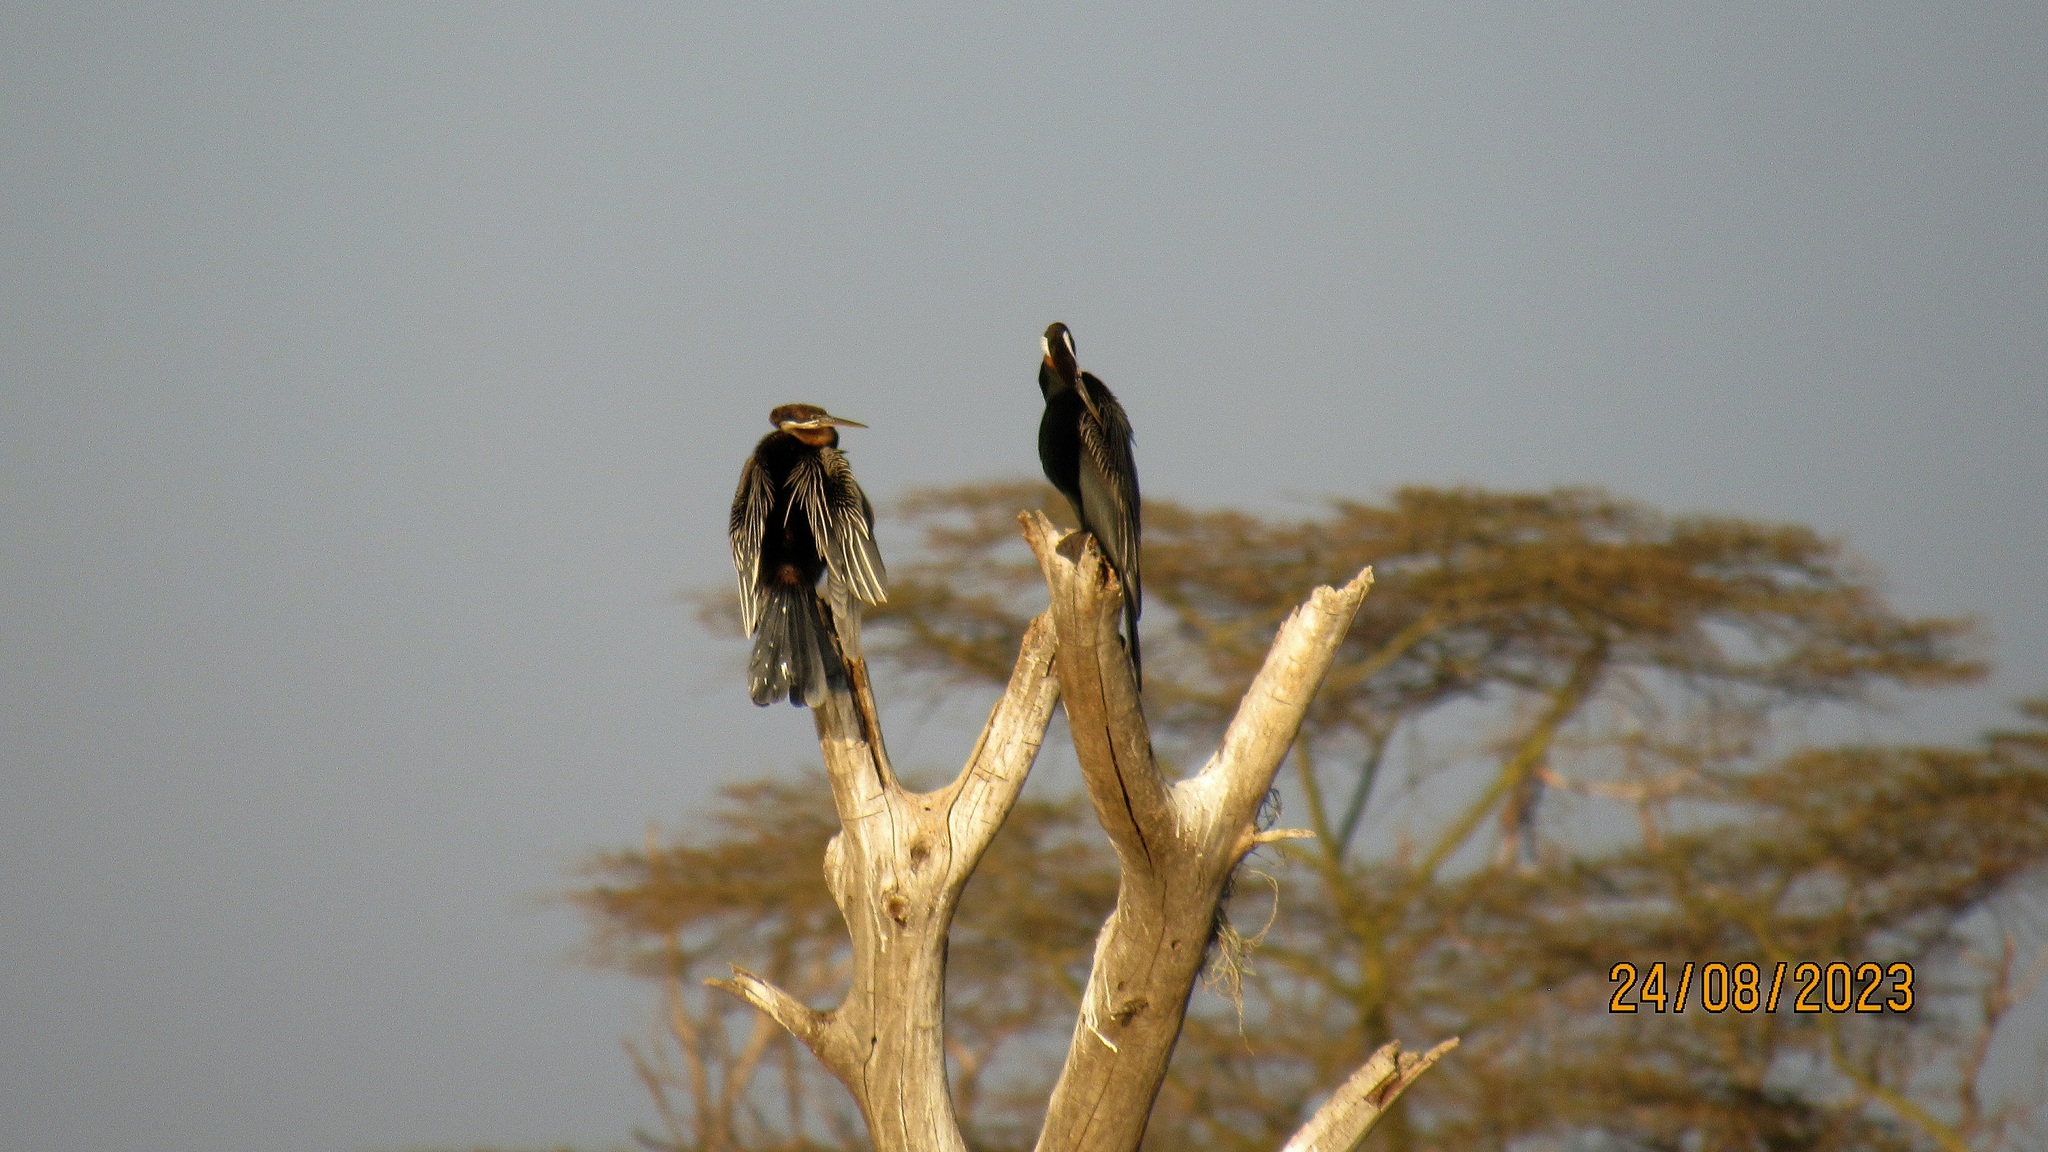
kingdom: Animalia
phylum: Chordata
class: Aves
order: Suliformes
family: Anhingidae
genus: Anhinga
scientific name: Anhinga rufa
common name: African darter
